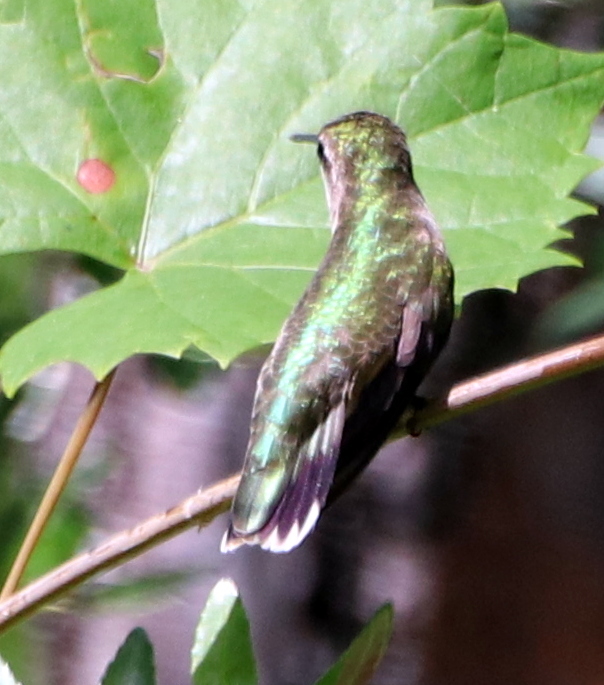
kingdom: Animalia
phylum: Chordata
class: Aves
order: Apodiformes
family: Trochilidae
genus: Archilochus
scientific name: Archilochus colubris
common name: Ruby-throated hummingbird
